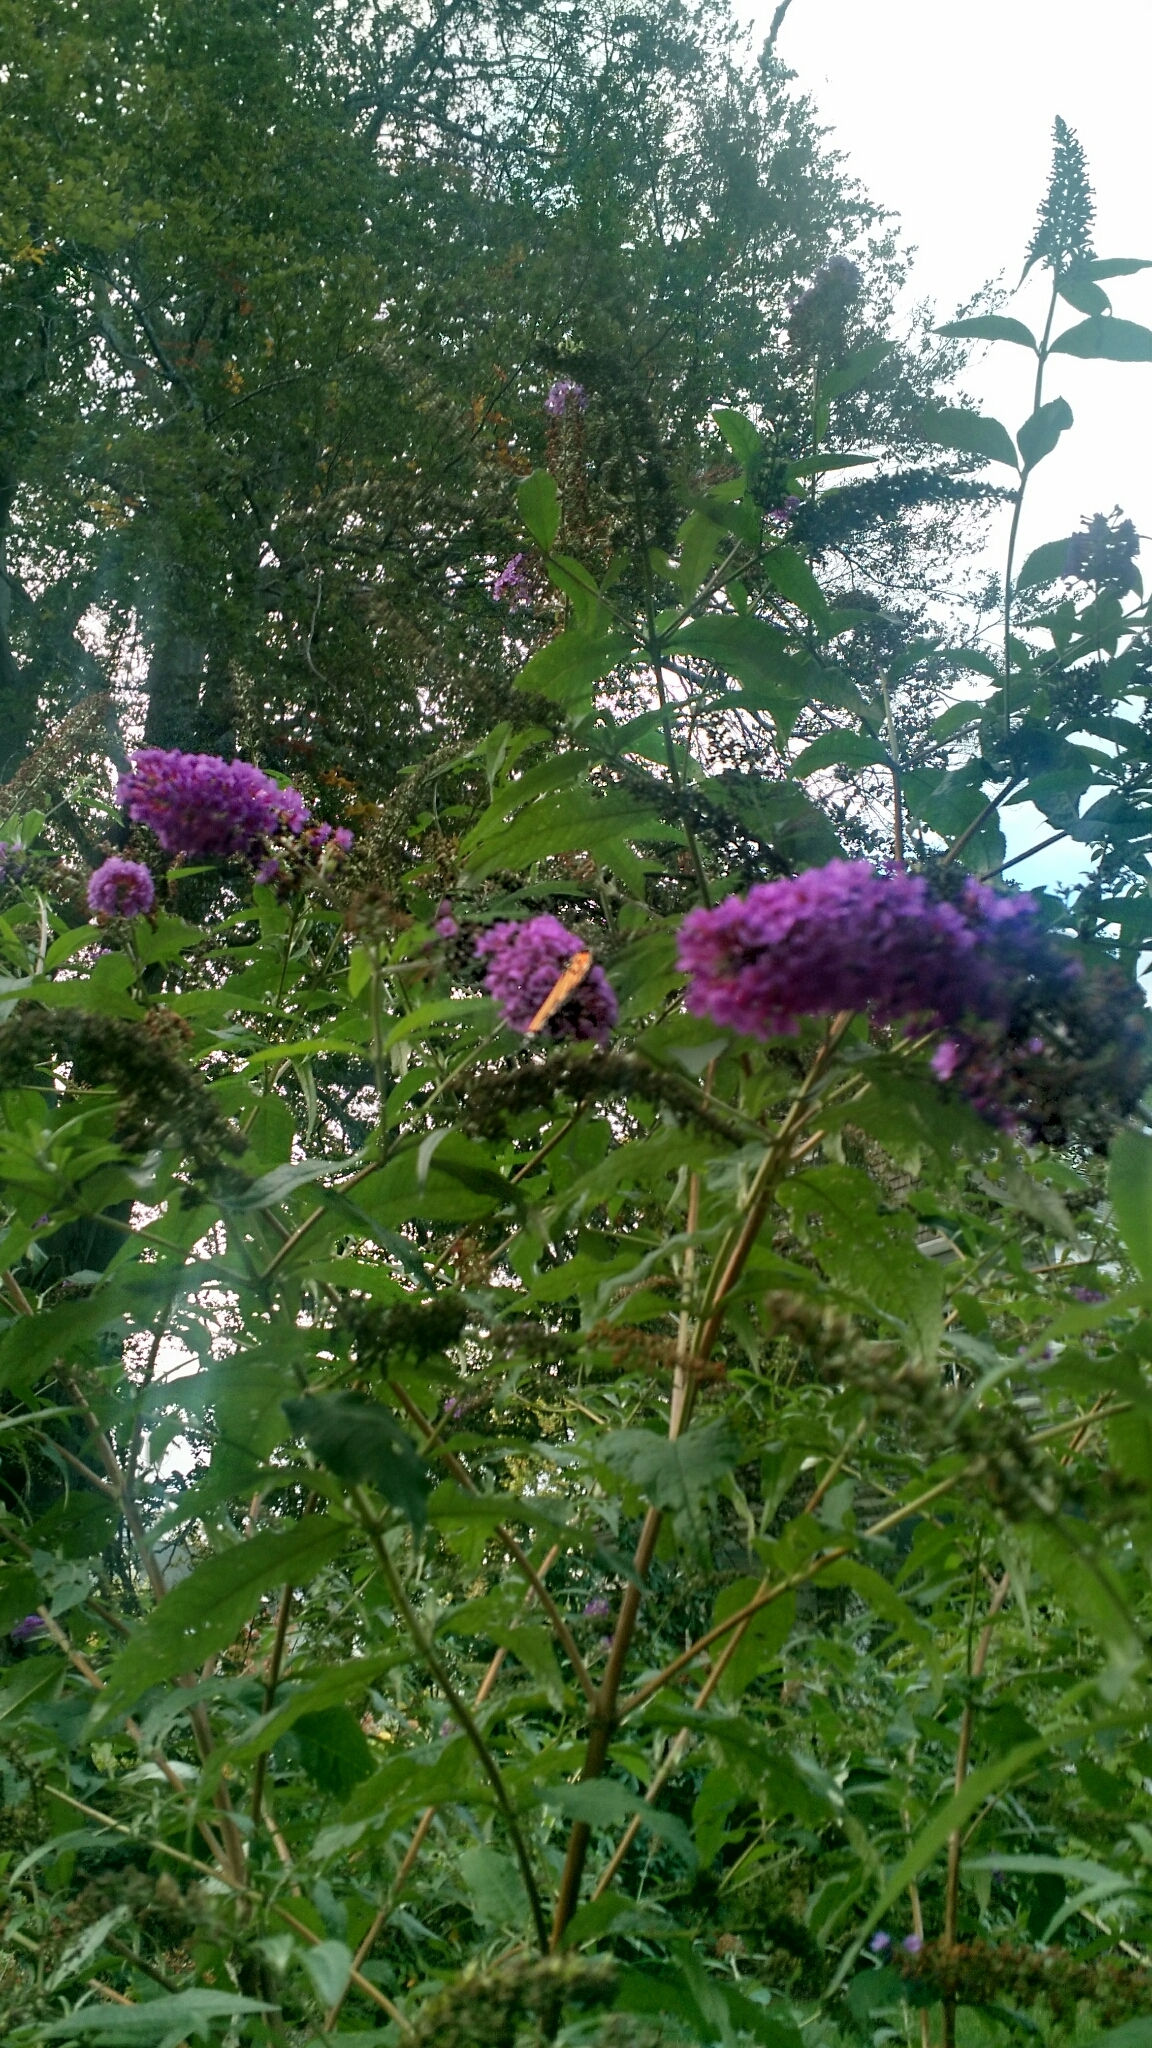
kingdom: Animalia
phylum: Arthropoda
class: Insecta
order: Lepidoptera
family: Nymphalidae
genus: Danaus
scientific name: Danaus plexippus
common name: Monarch
